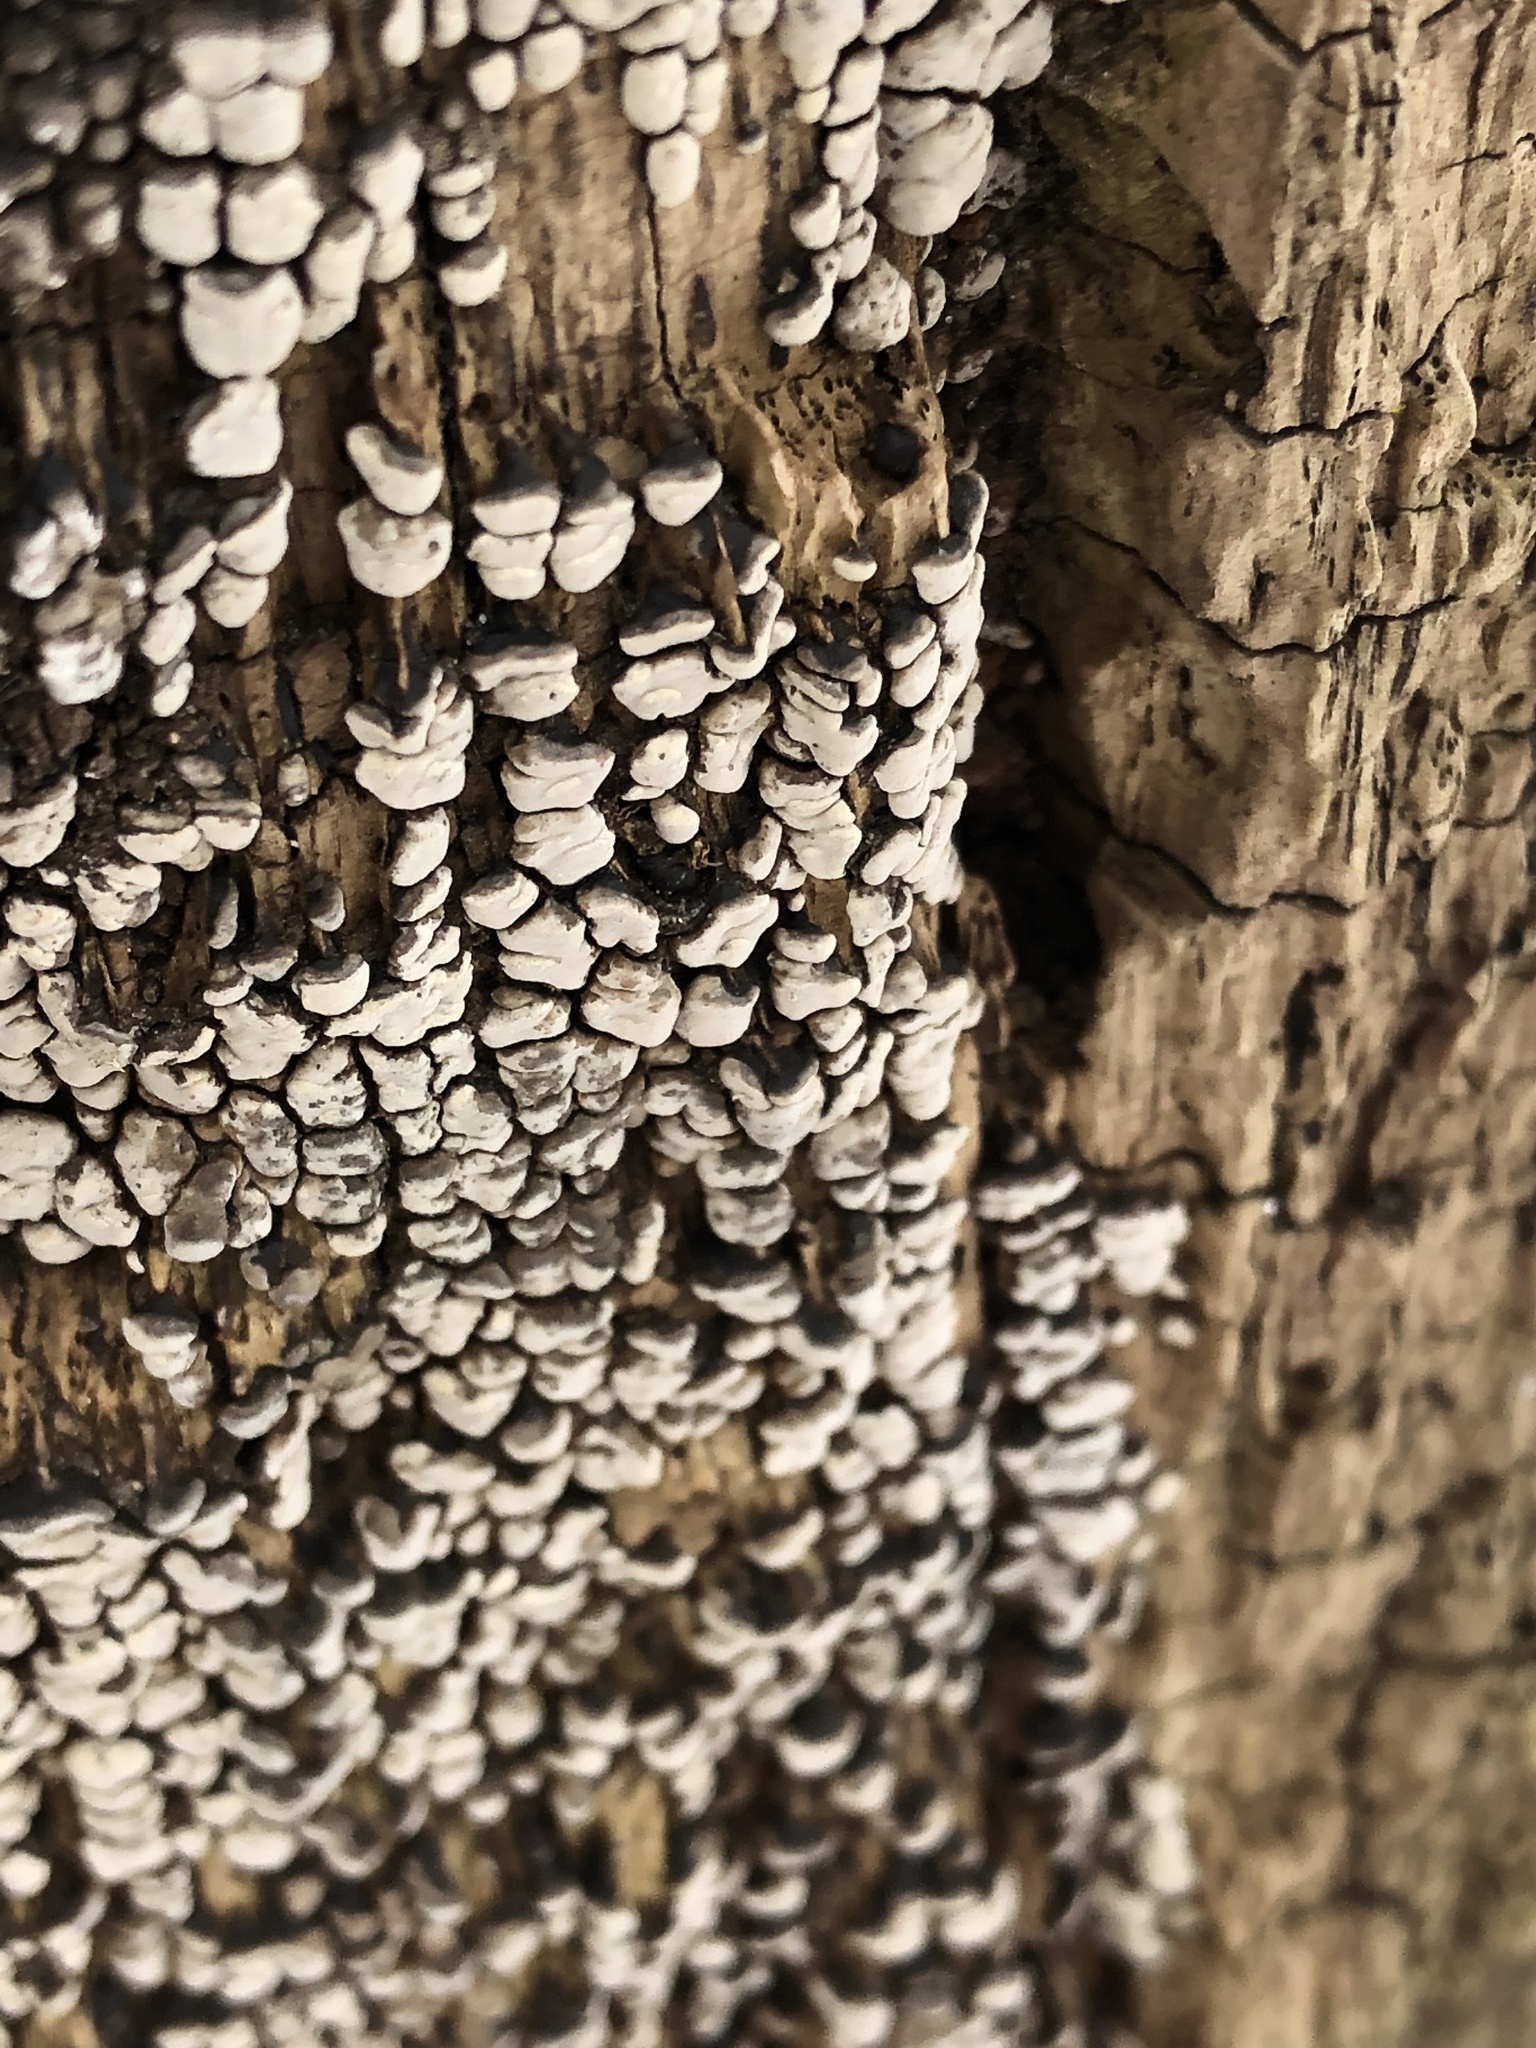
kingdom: Fungi
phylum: Basidiomycota
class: Agaricomycetes
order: Russulales
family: Stereaceae
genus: Xylobolus
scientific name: Xylobolus frustulatus
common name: Ceramic parchment
